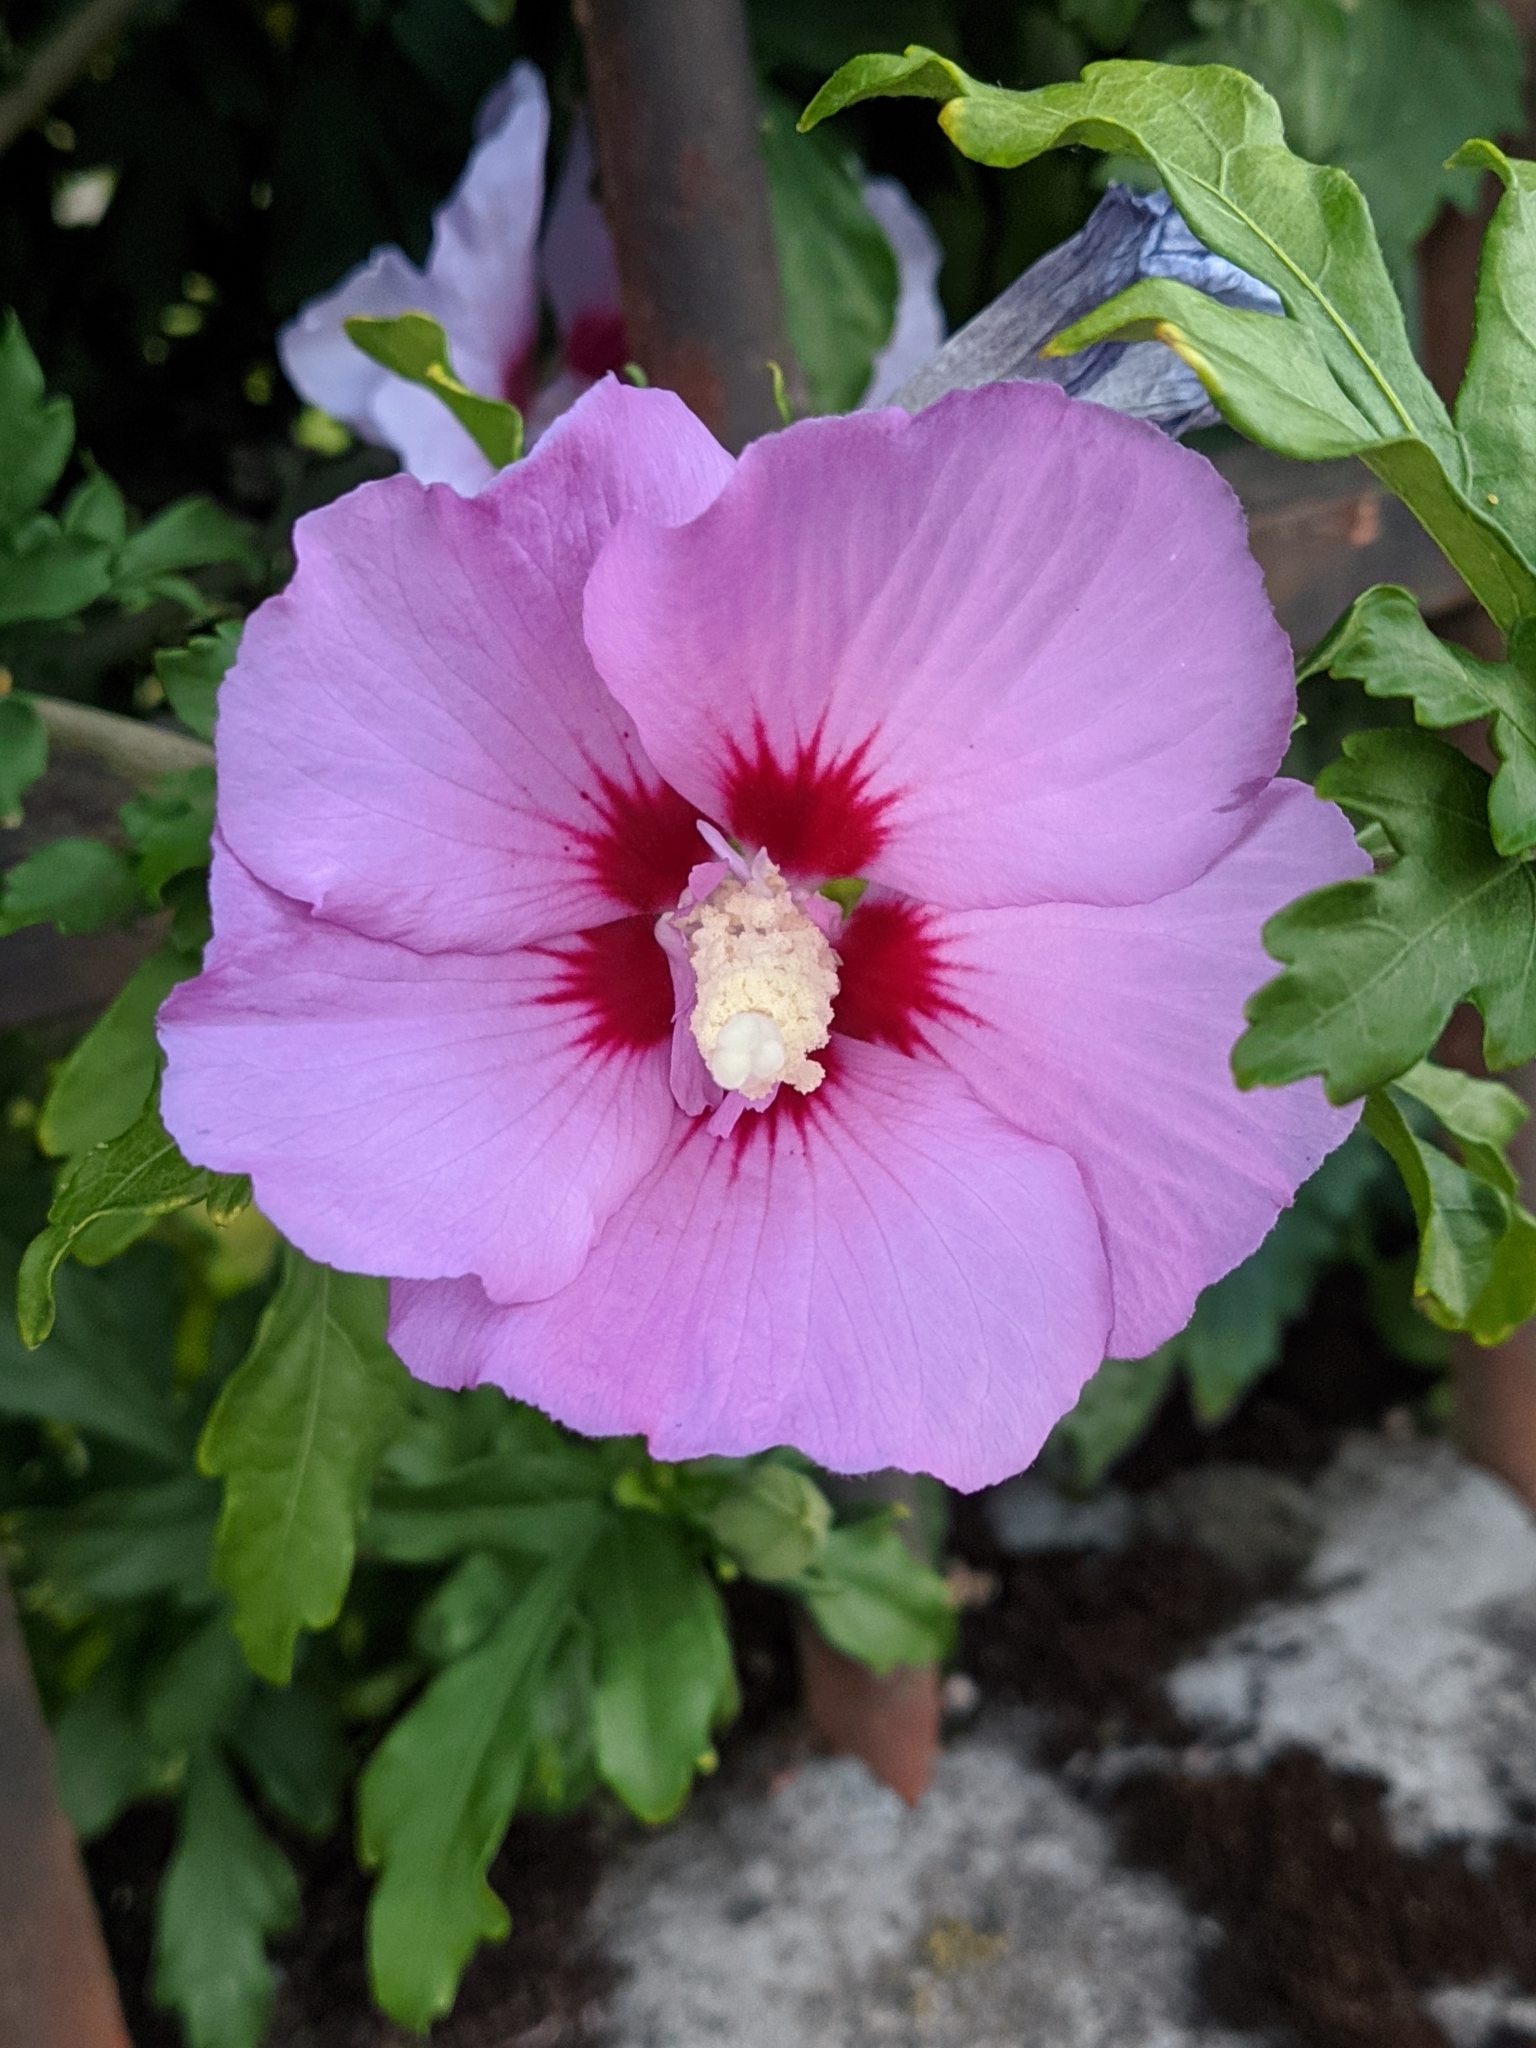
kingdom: Plantae
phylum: Tracheophyta
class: Magnoliopsida
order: Malvales
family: Malvaceae
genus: Hibiscus
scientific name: Hibiscus syriacus
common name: Syrian ketmia
